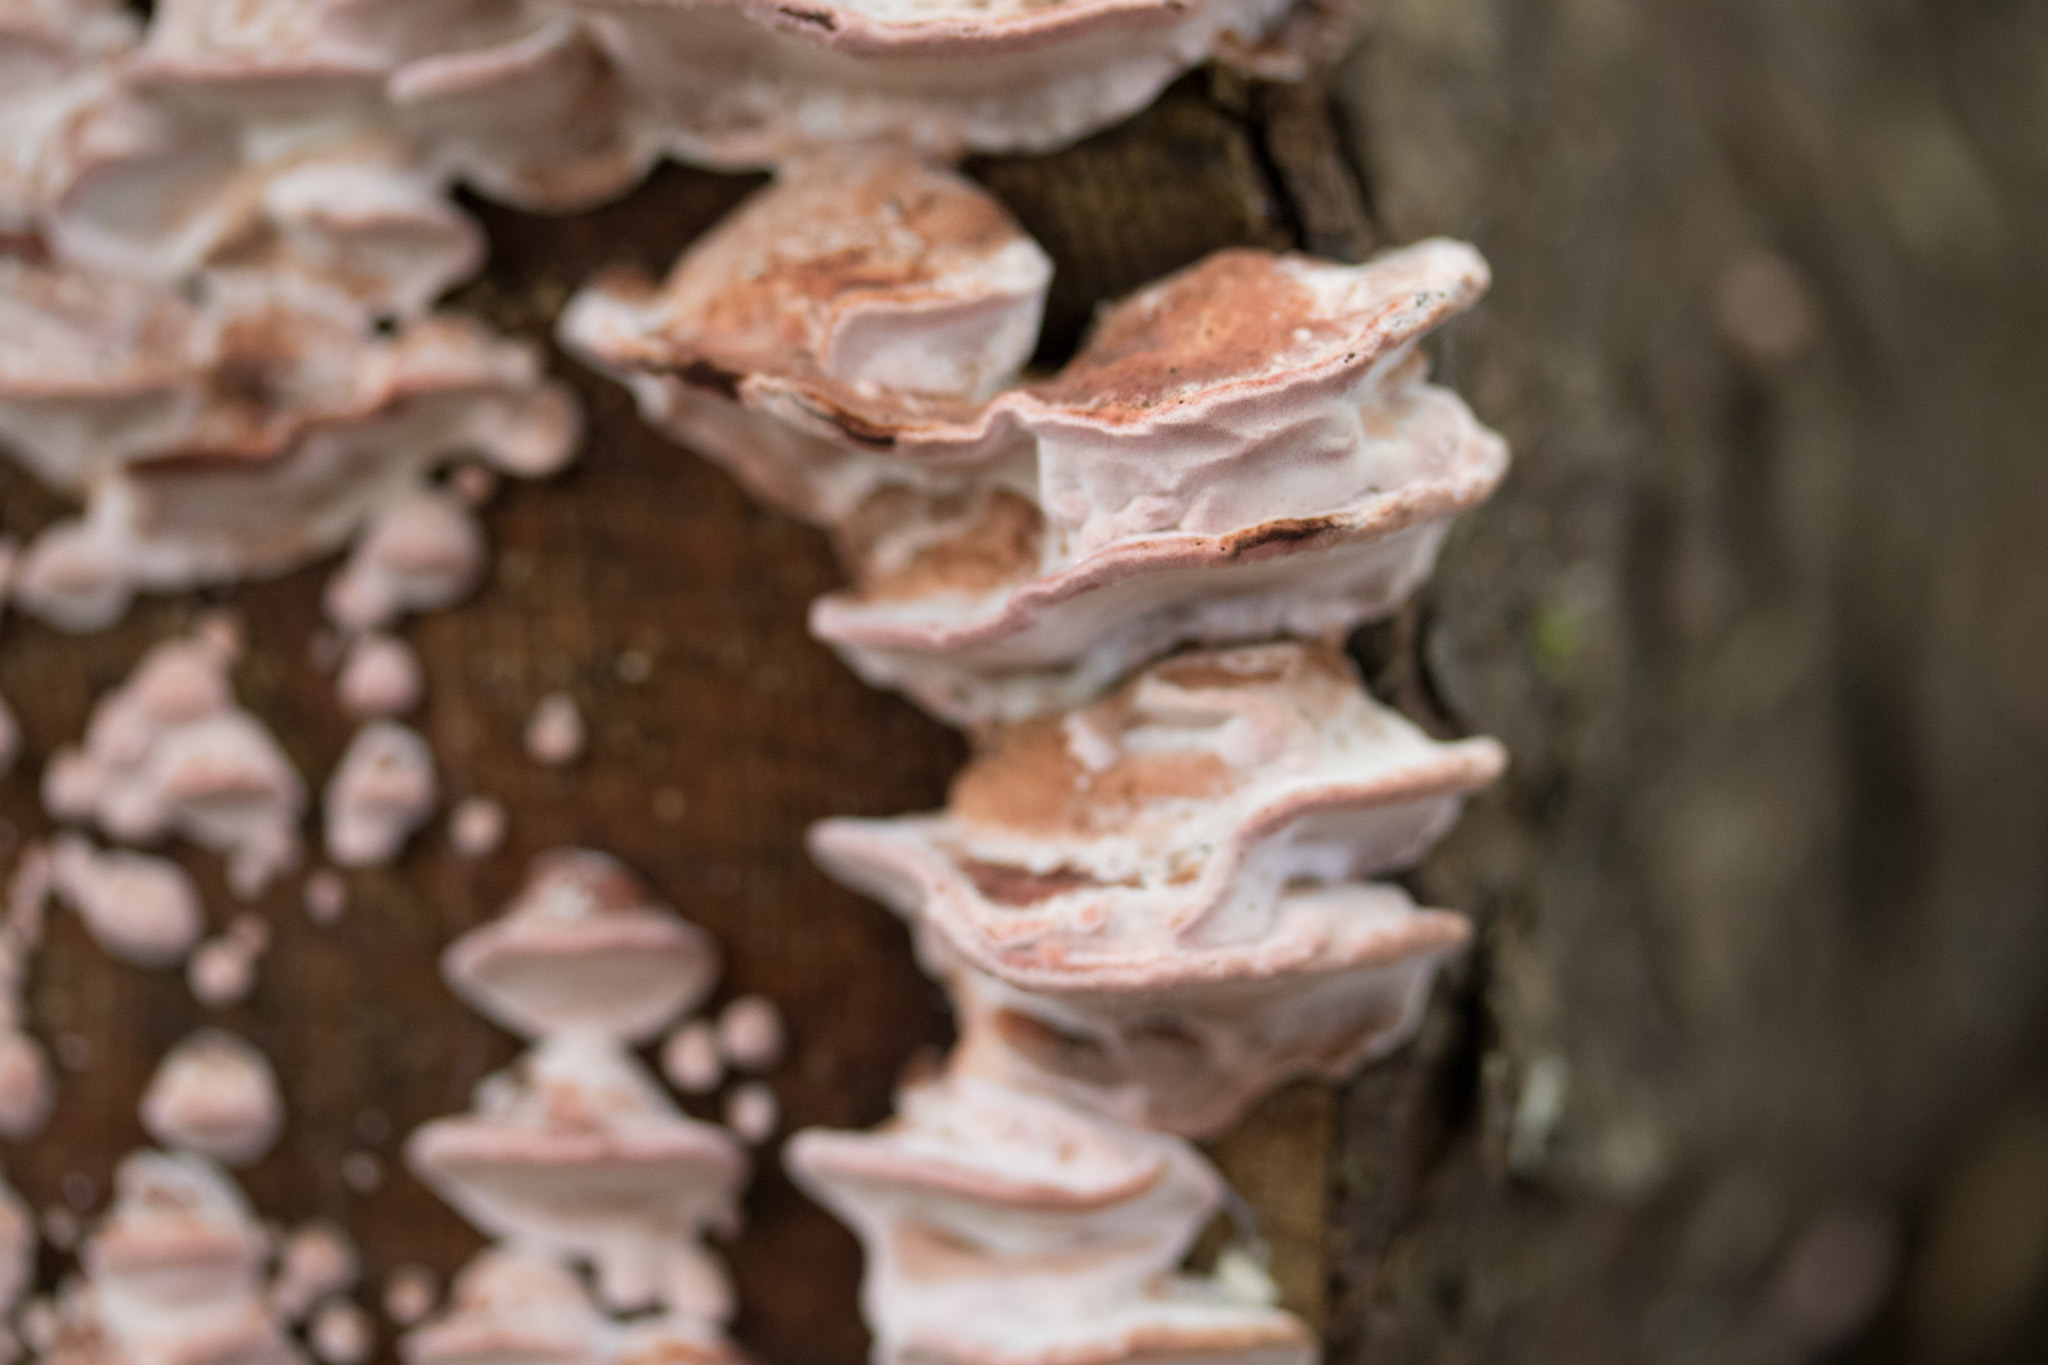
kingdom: Fungi
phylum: Basidiomycota
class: Agaricomycetes
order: Polyporales
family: Fomitopsidaceae
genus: Rhodofomes
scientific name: Rhodofomes cajanderi
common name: Rosy conk
